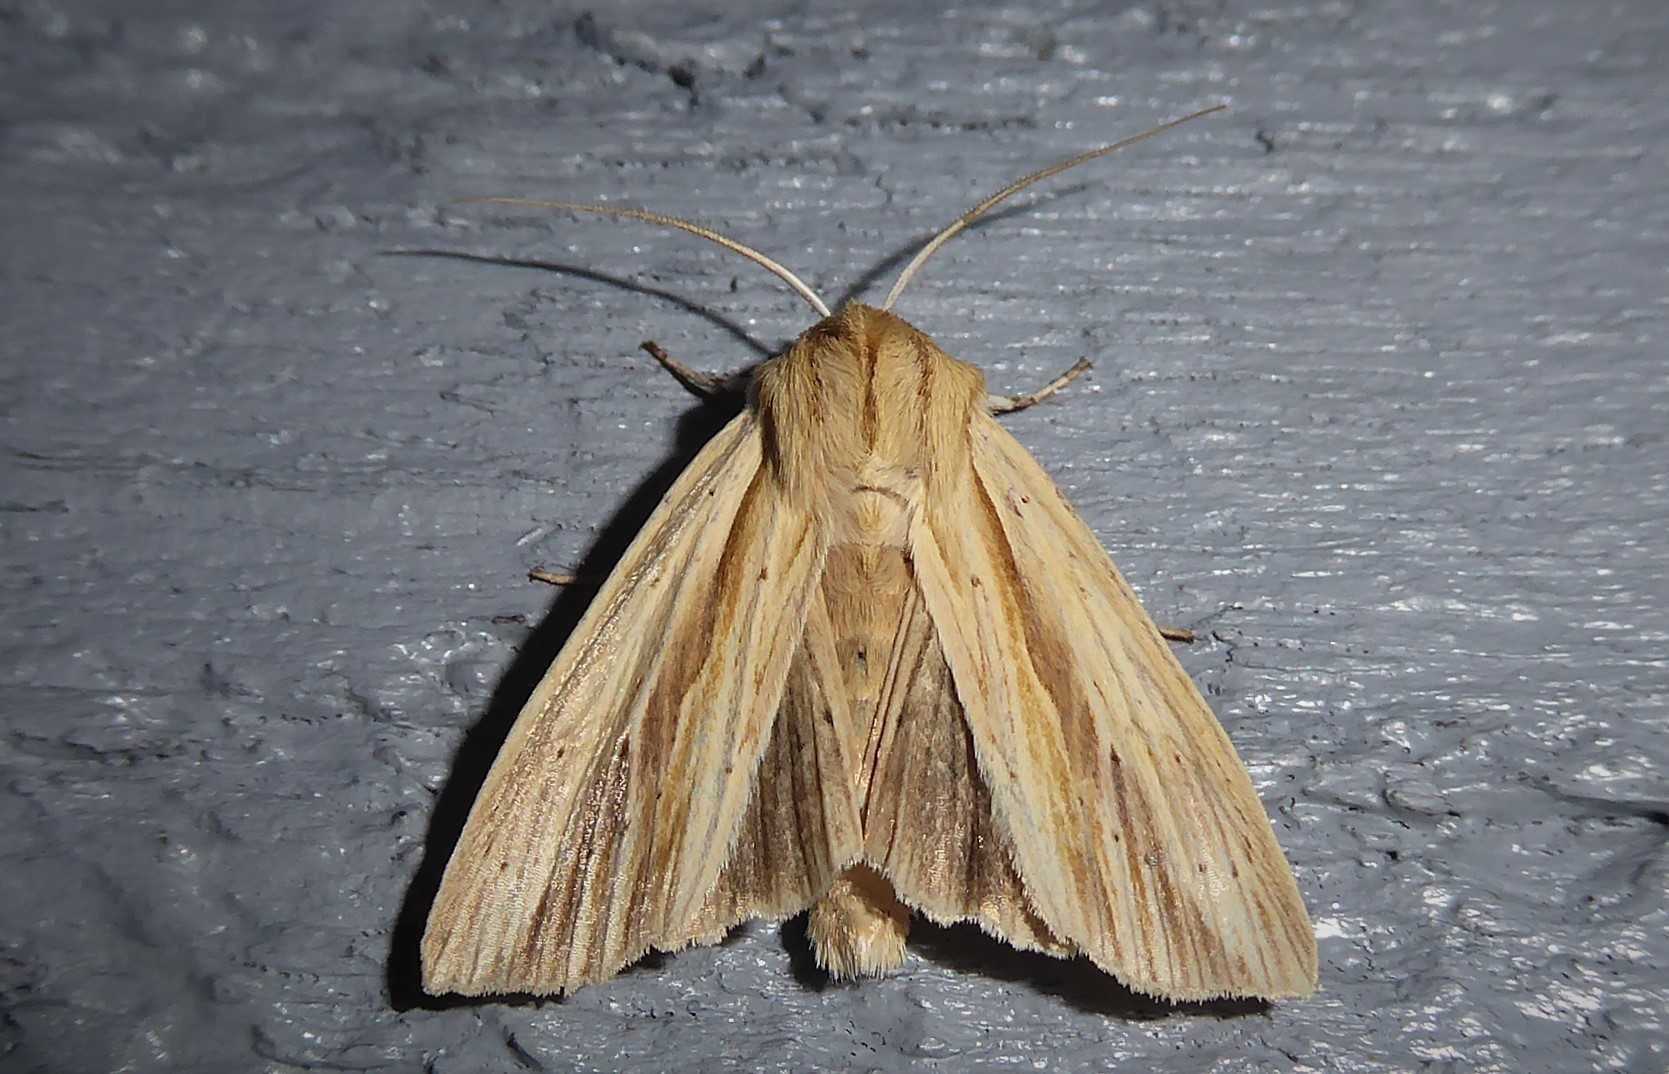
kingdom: Animalia
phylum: Arthropoda
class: Insecta
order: Lepidoptera
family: Noctuidae
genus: Ichneutica
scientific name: Ichneutica semivittata
